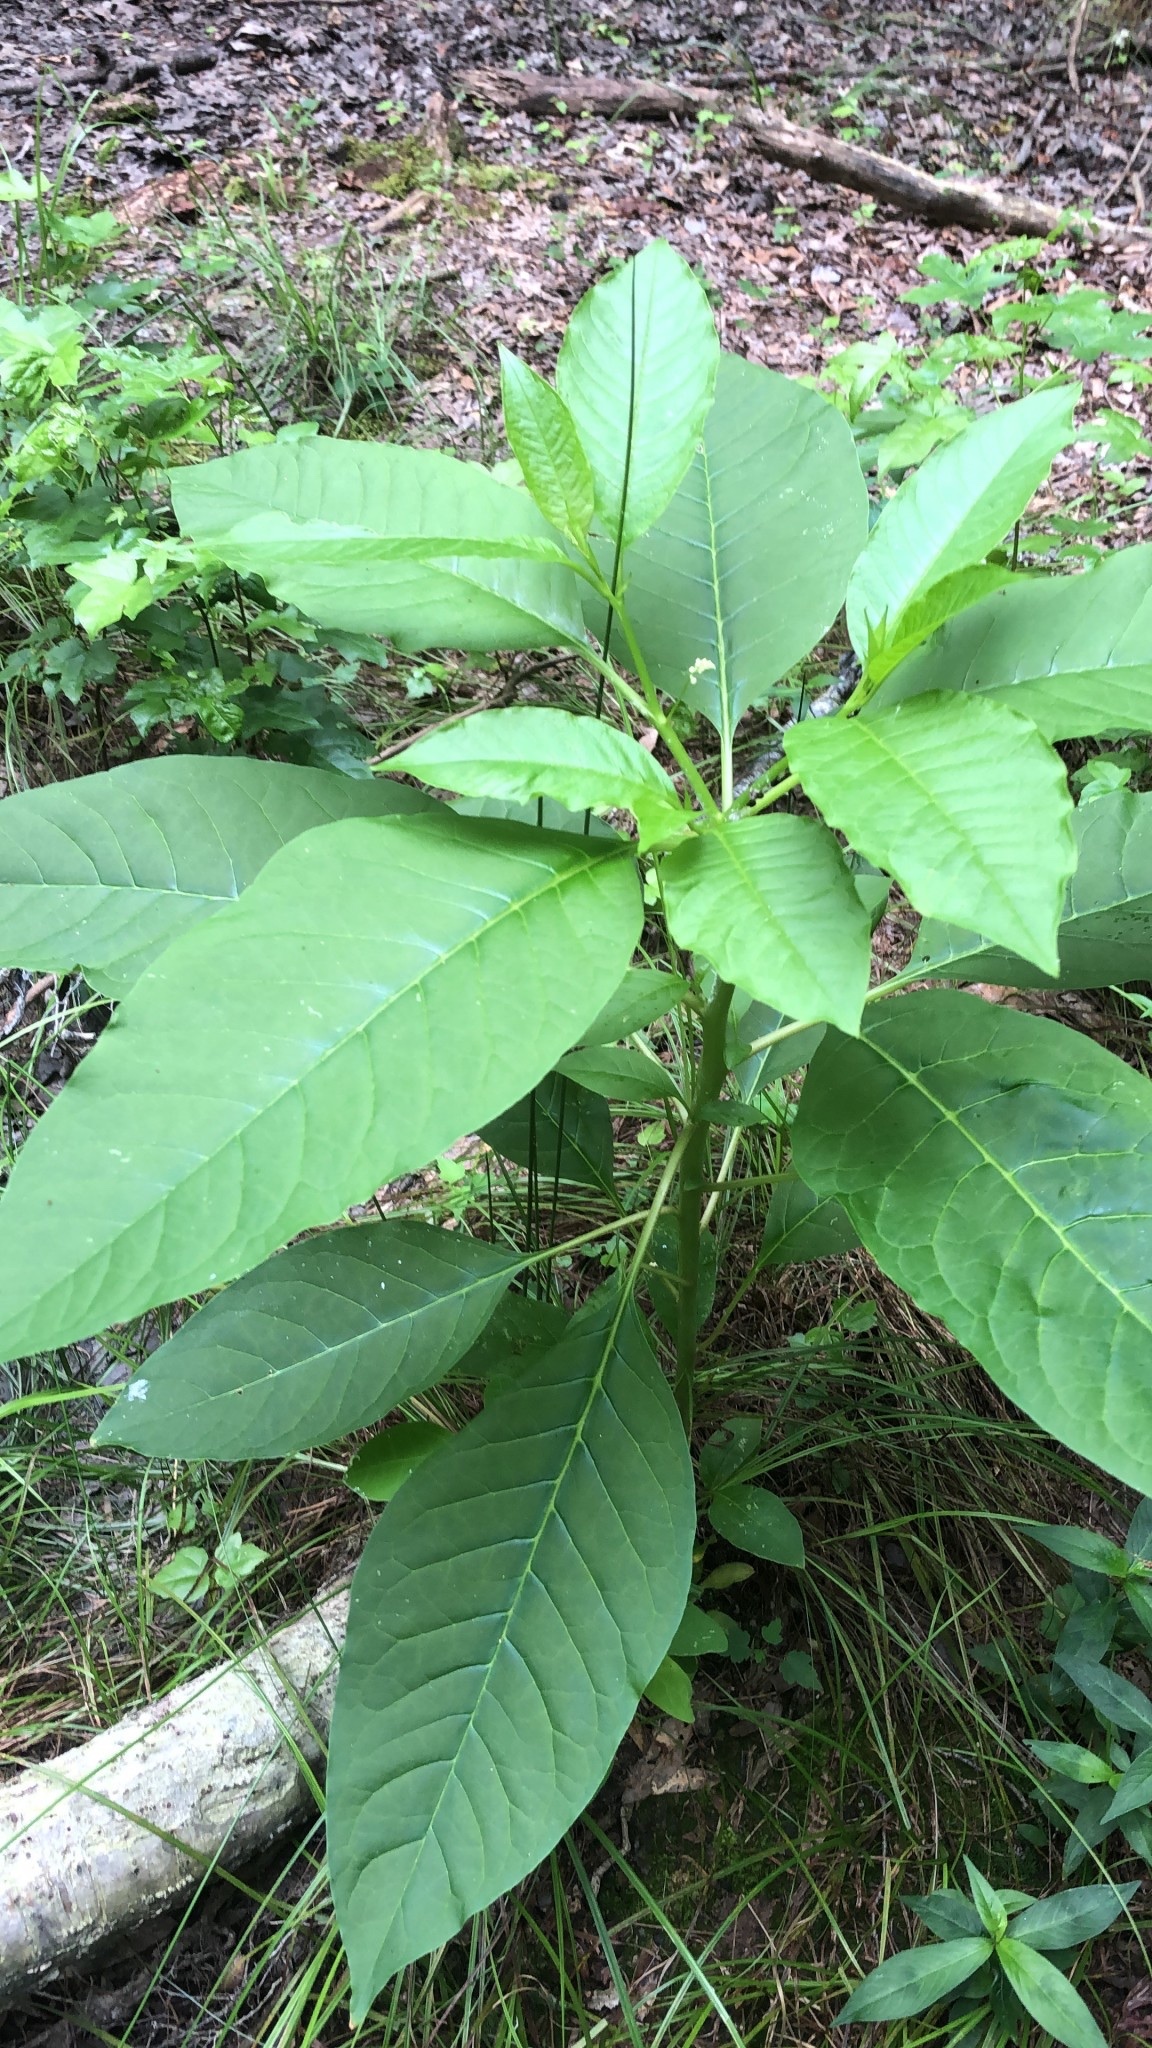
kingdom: Plantae
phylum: Tracheophyta
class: Magnoliopsida
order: Caryophyllales
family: Phytolaccaceae
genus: Phytolacca
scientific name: Phytolacca americana
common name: American pokeweed
